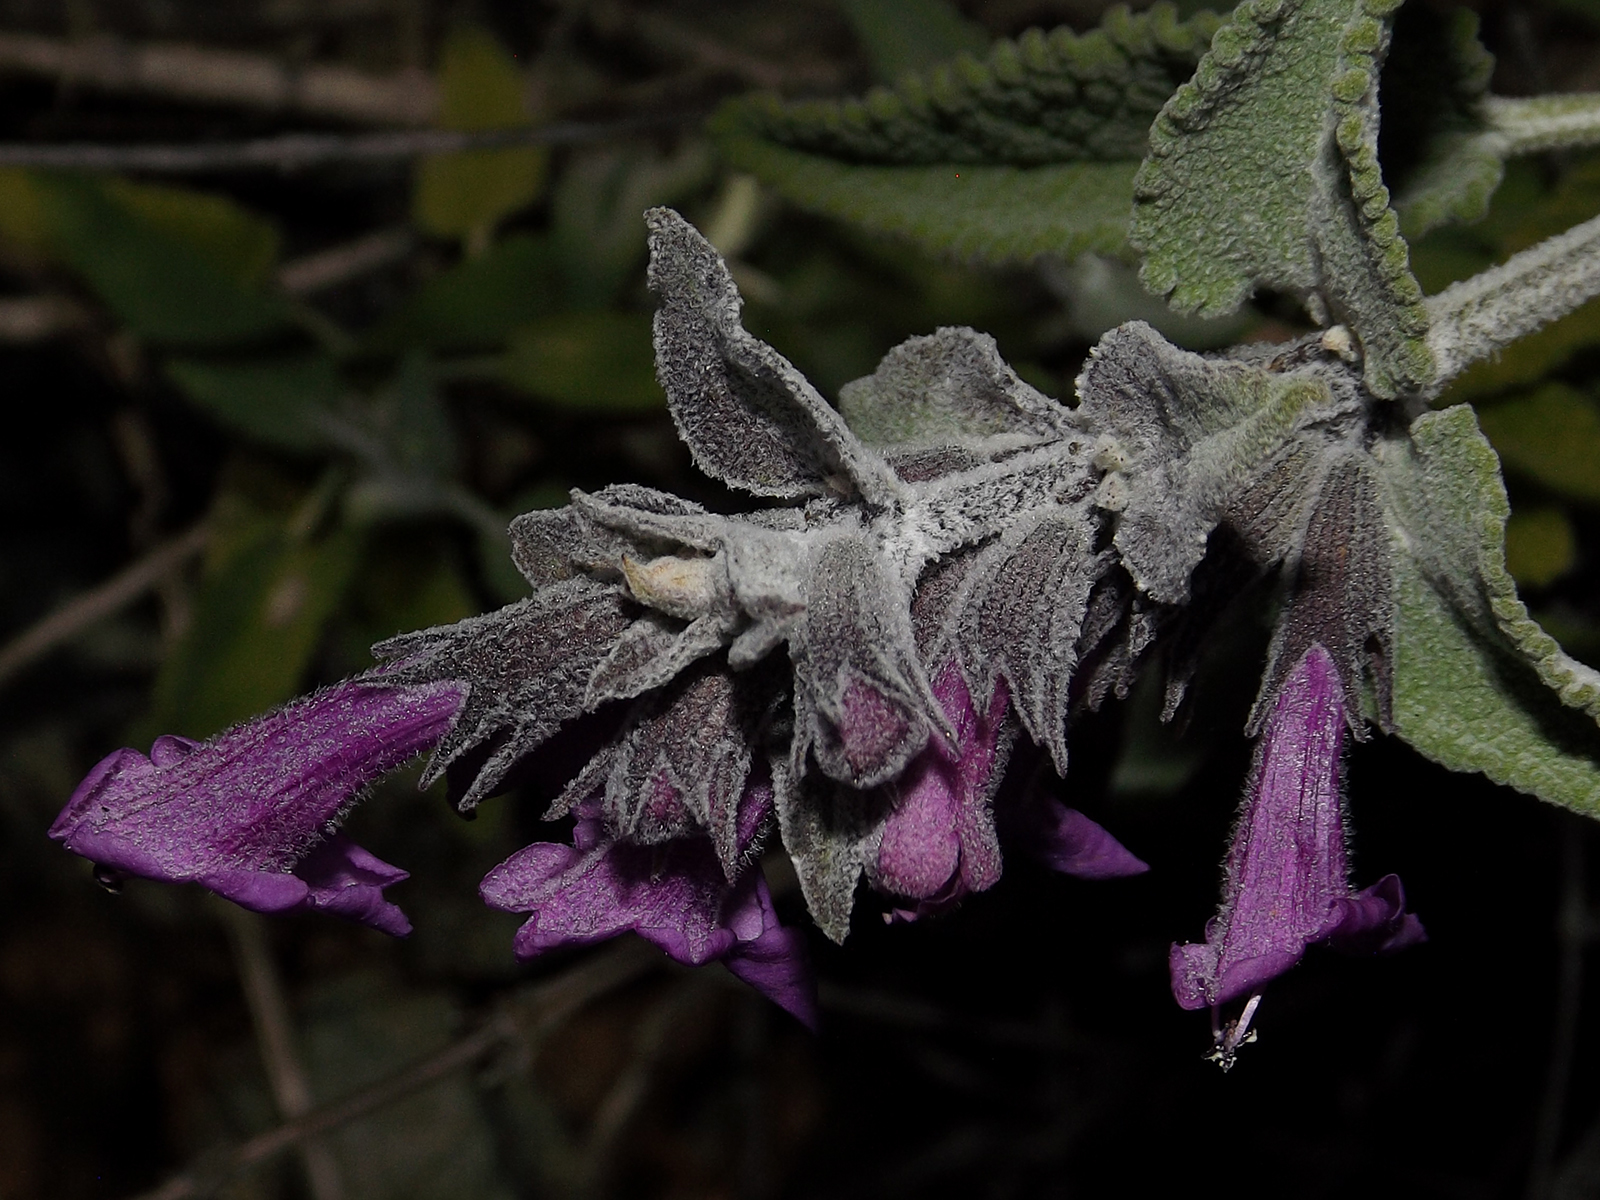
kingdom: Plantae
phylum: Tracheophyta
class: Magnoliopsida
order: Lamiales
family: Lamiaceae
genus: Lepechinia
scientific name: Lepechinia salviae
